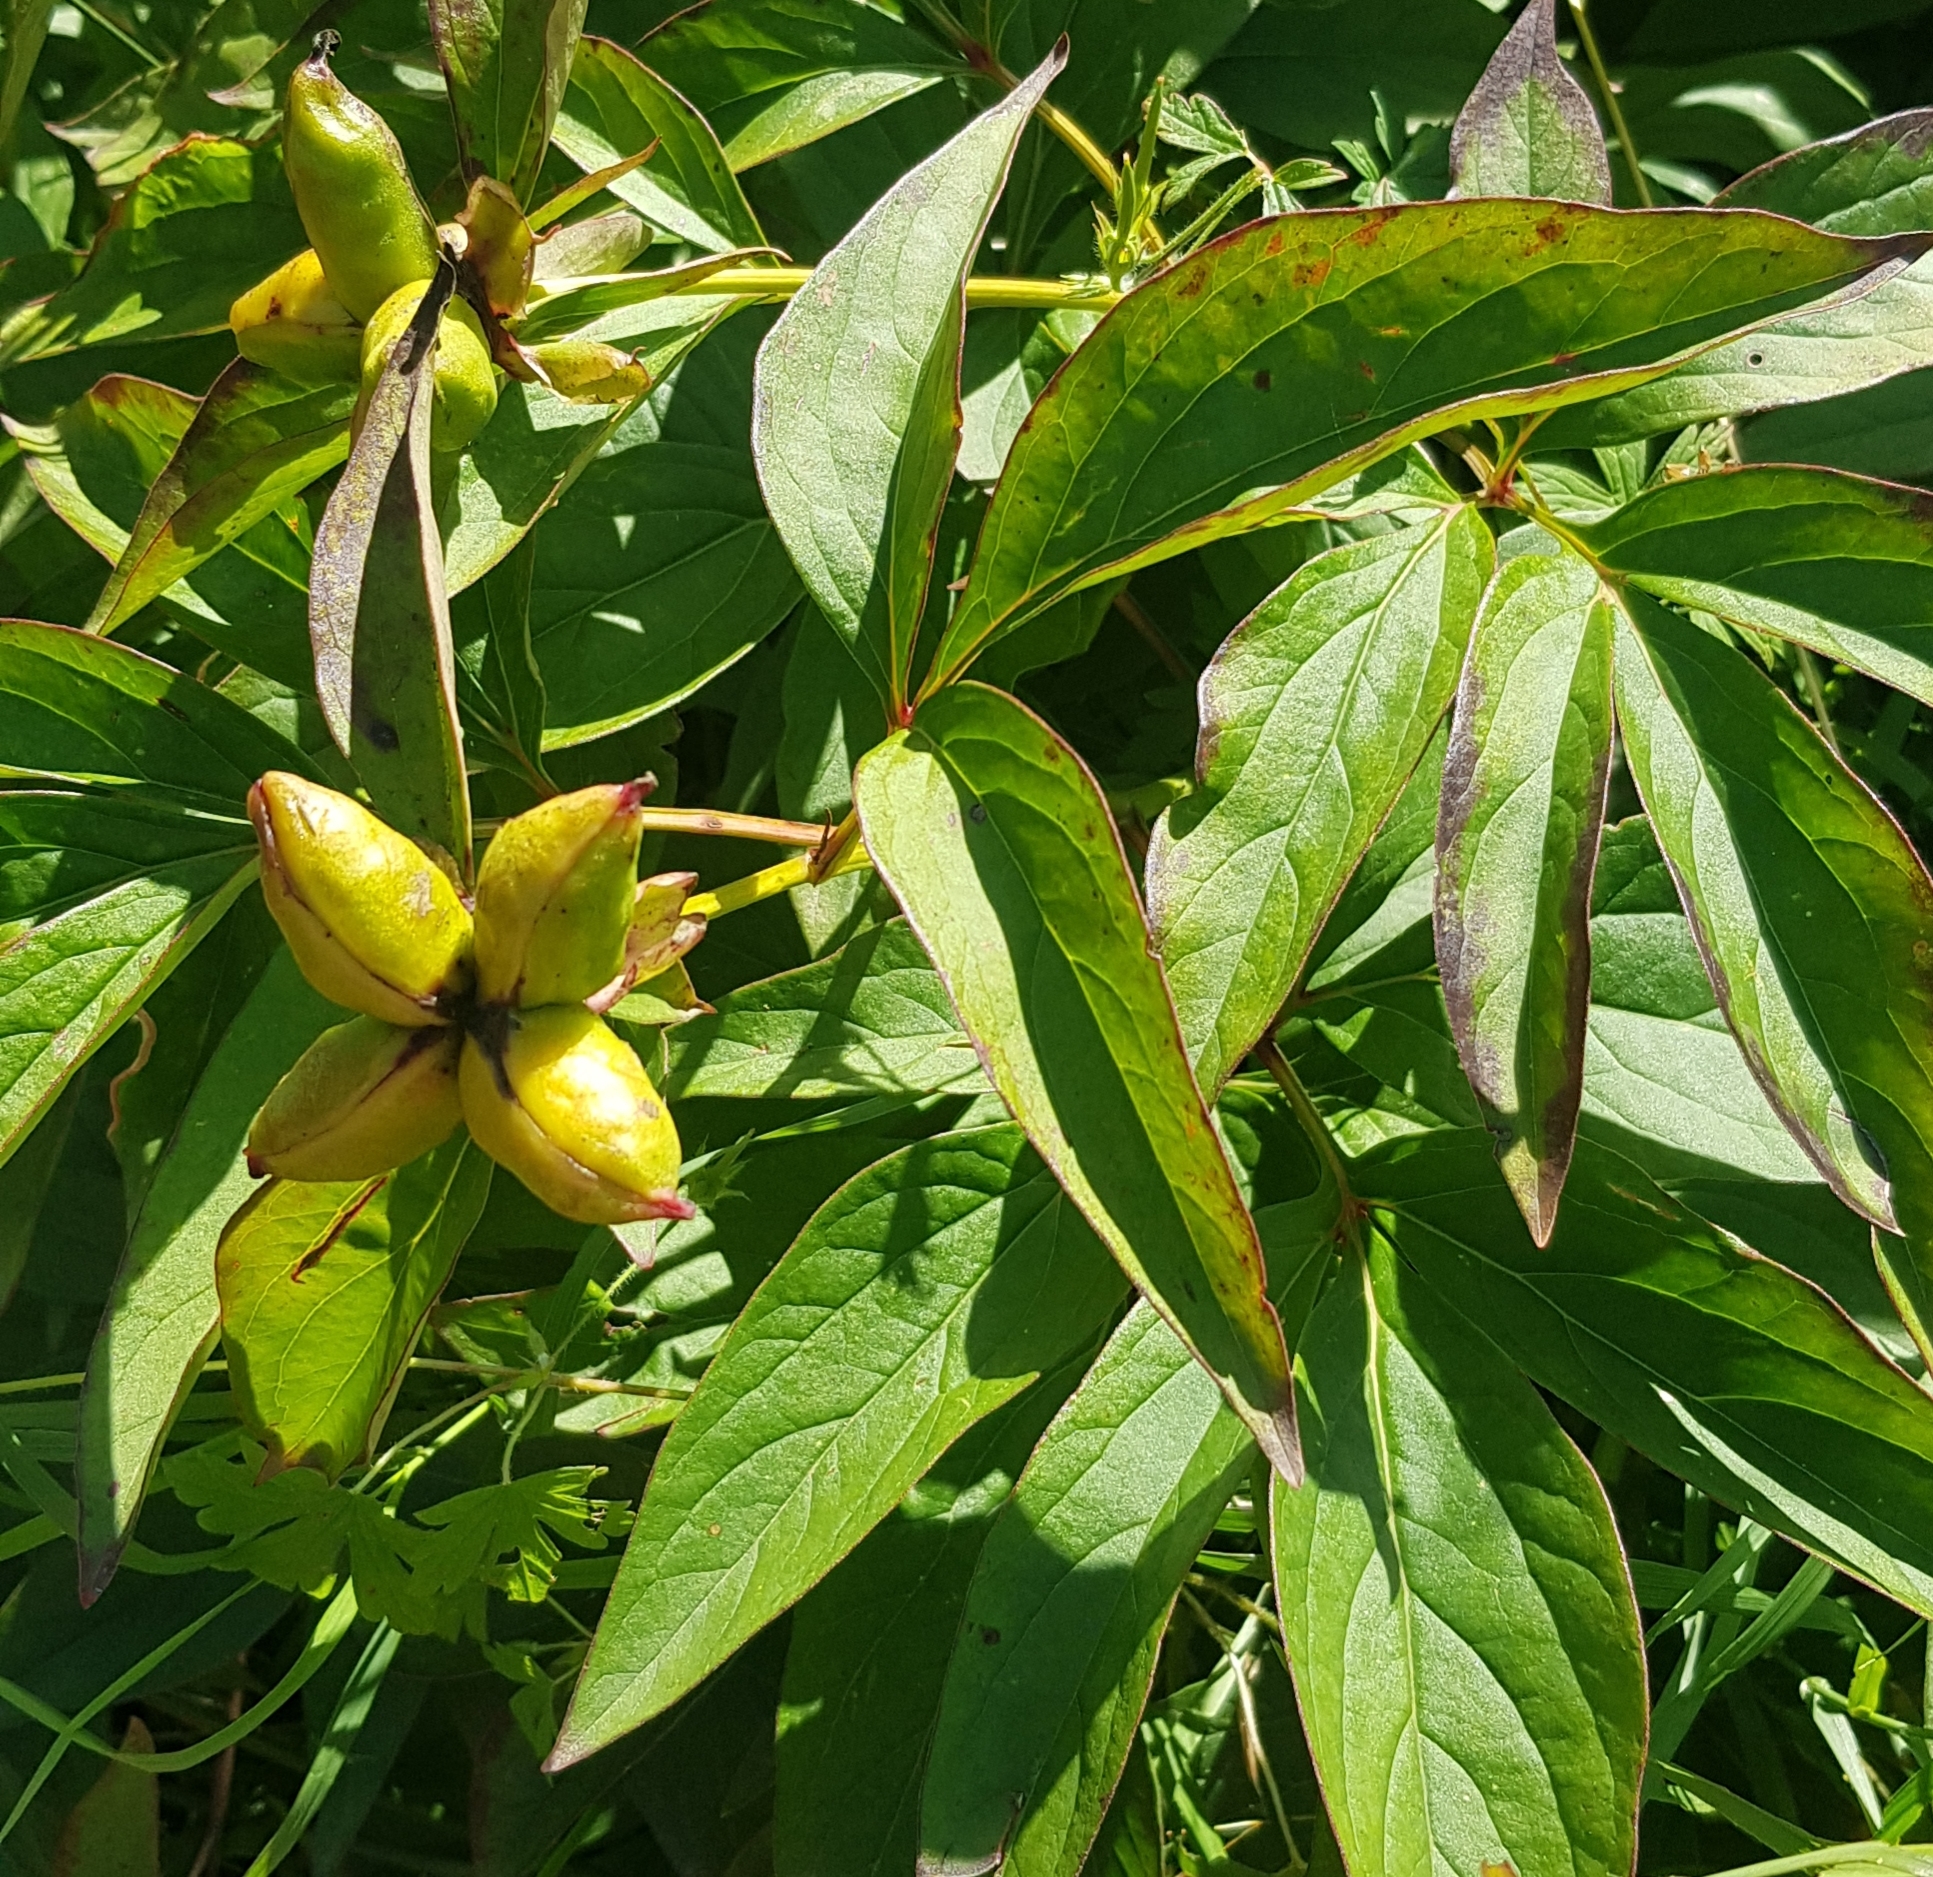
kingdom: Plantae
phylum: Tracheophyta
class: Magnoliopsida
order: Saxifragales
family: Paeoniaceae
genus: Paeonia
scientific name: Paeonia lactiflora
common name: Chinese peony
